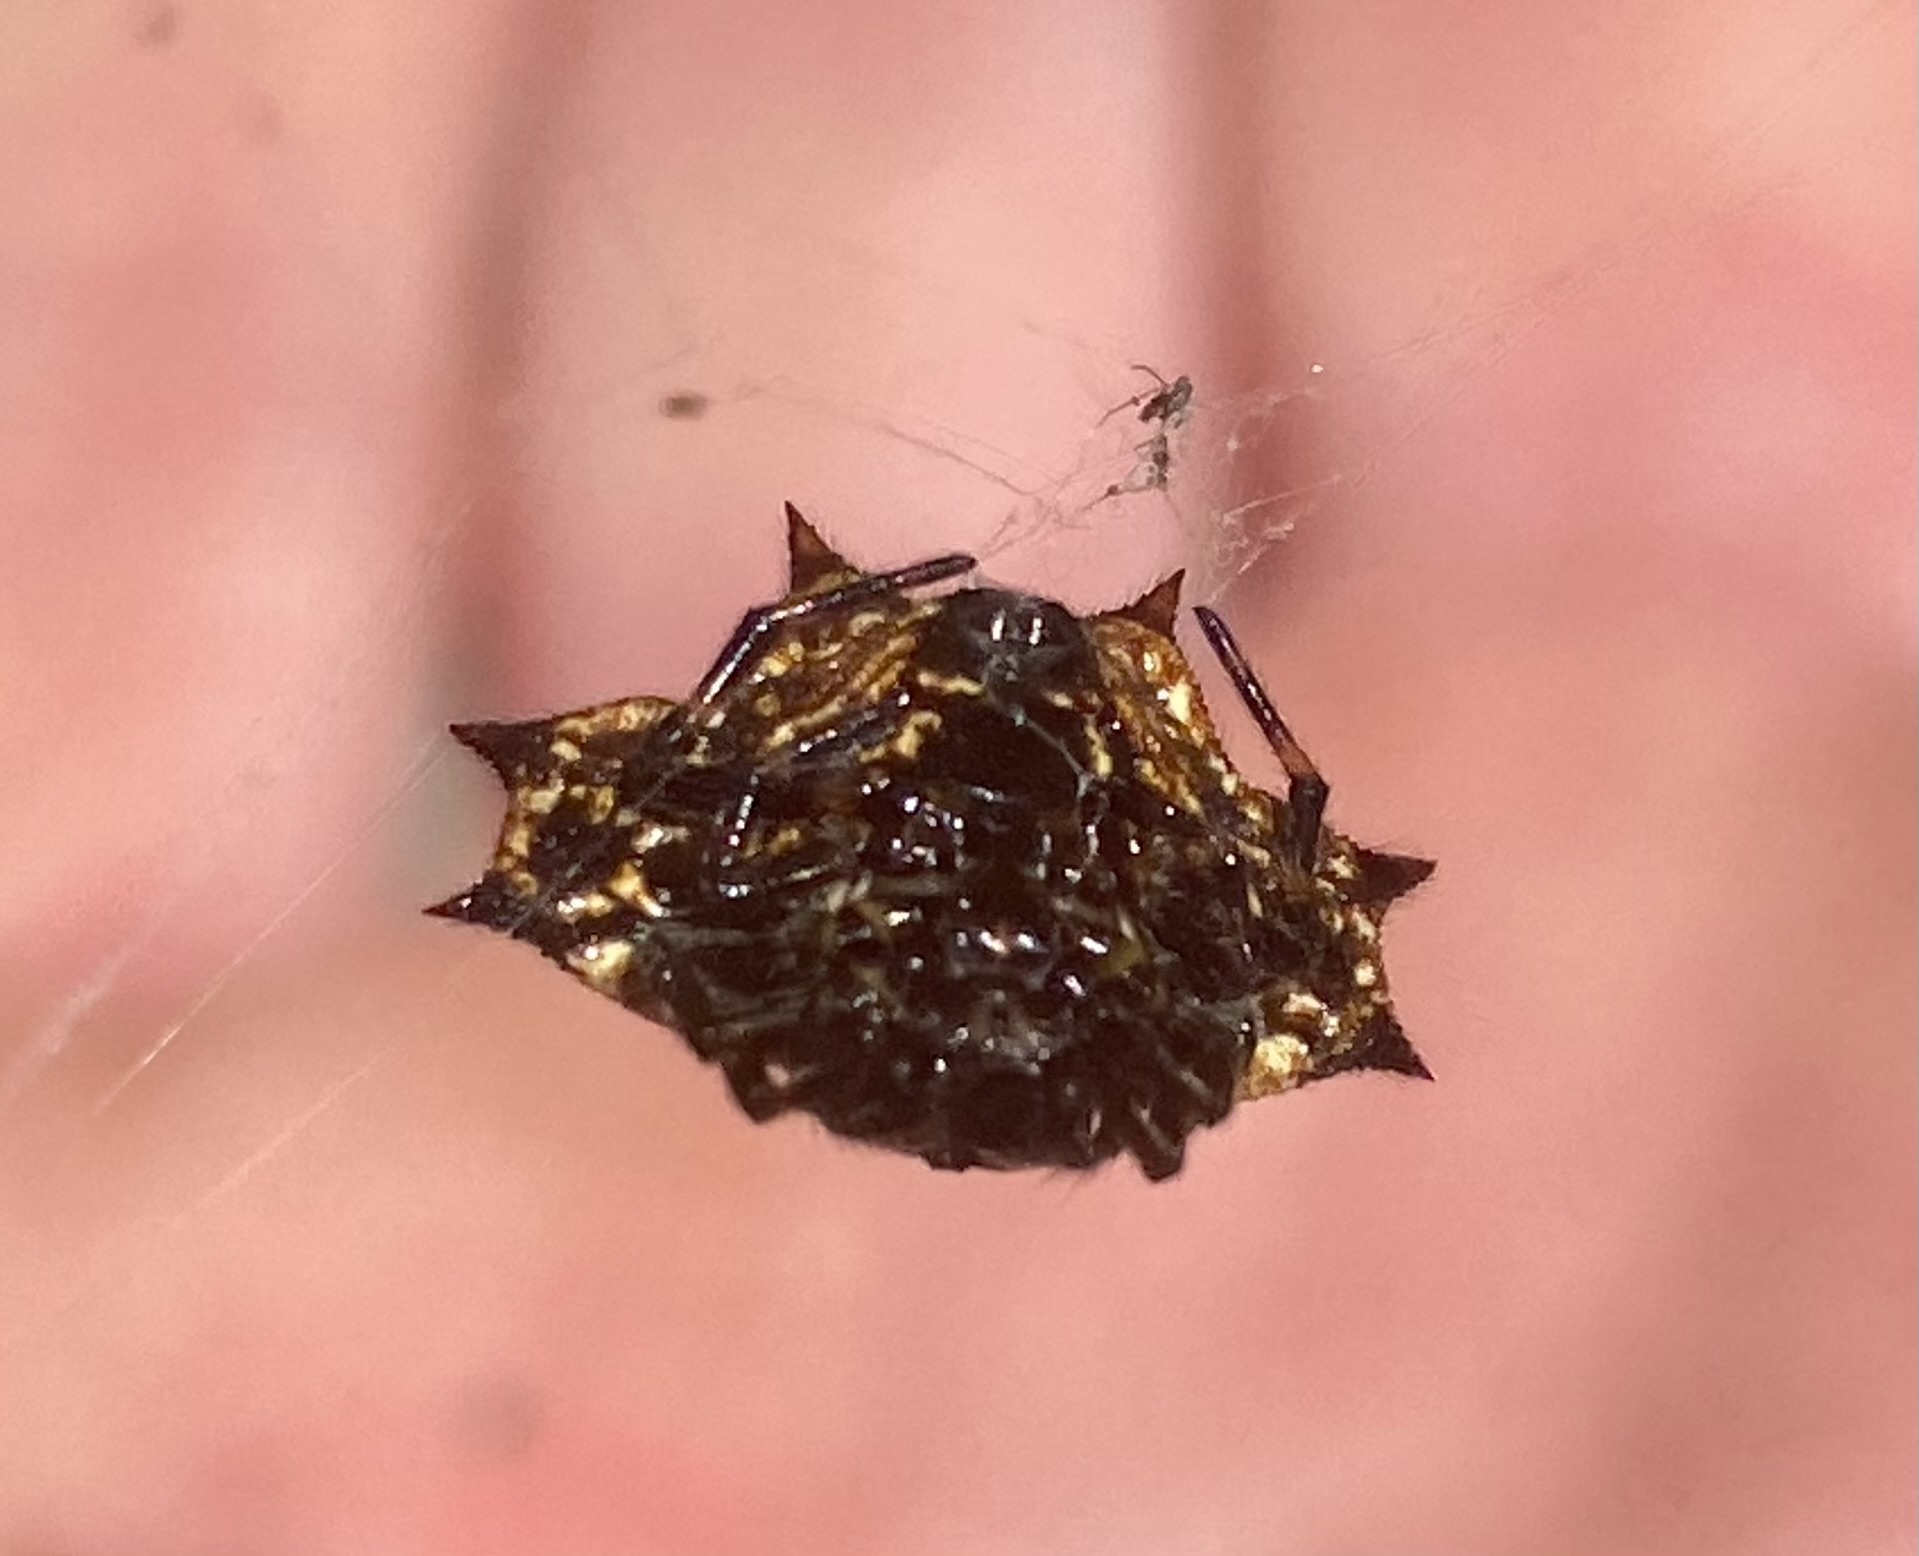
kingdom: Animalia
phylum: Arthropoda
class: Arachnida
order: Araneae
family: Araneidae
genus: Gasteracantha
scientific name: Gasteracantha cancriformis
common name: Orb weavers
